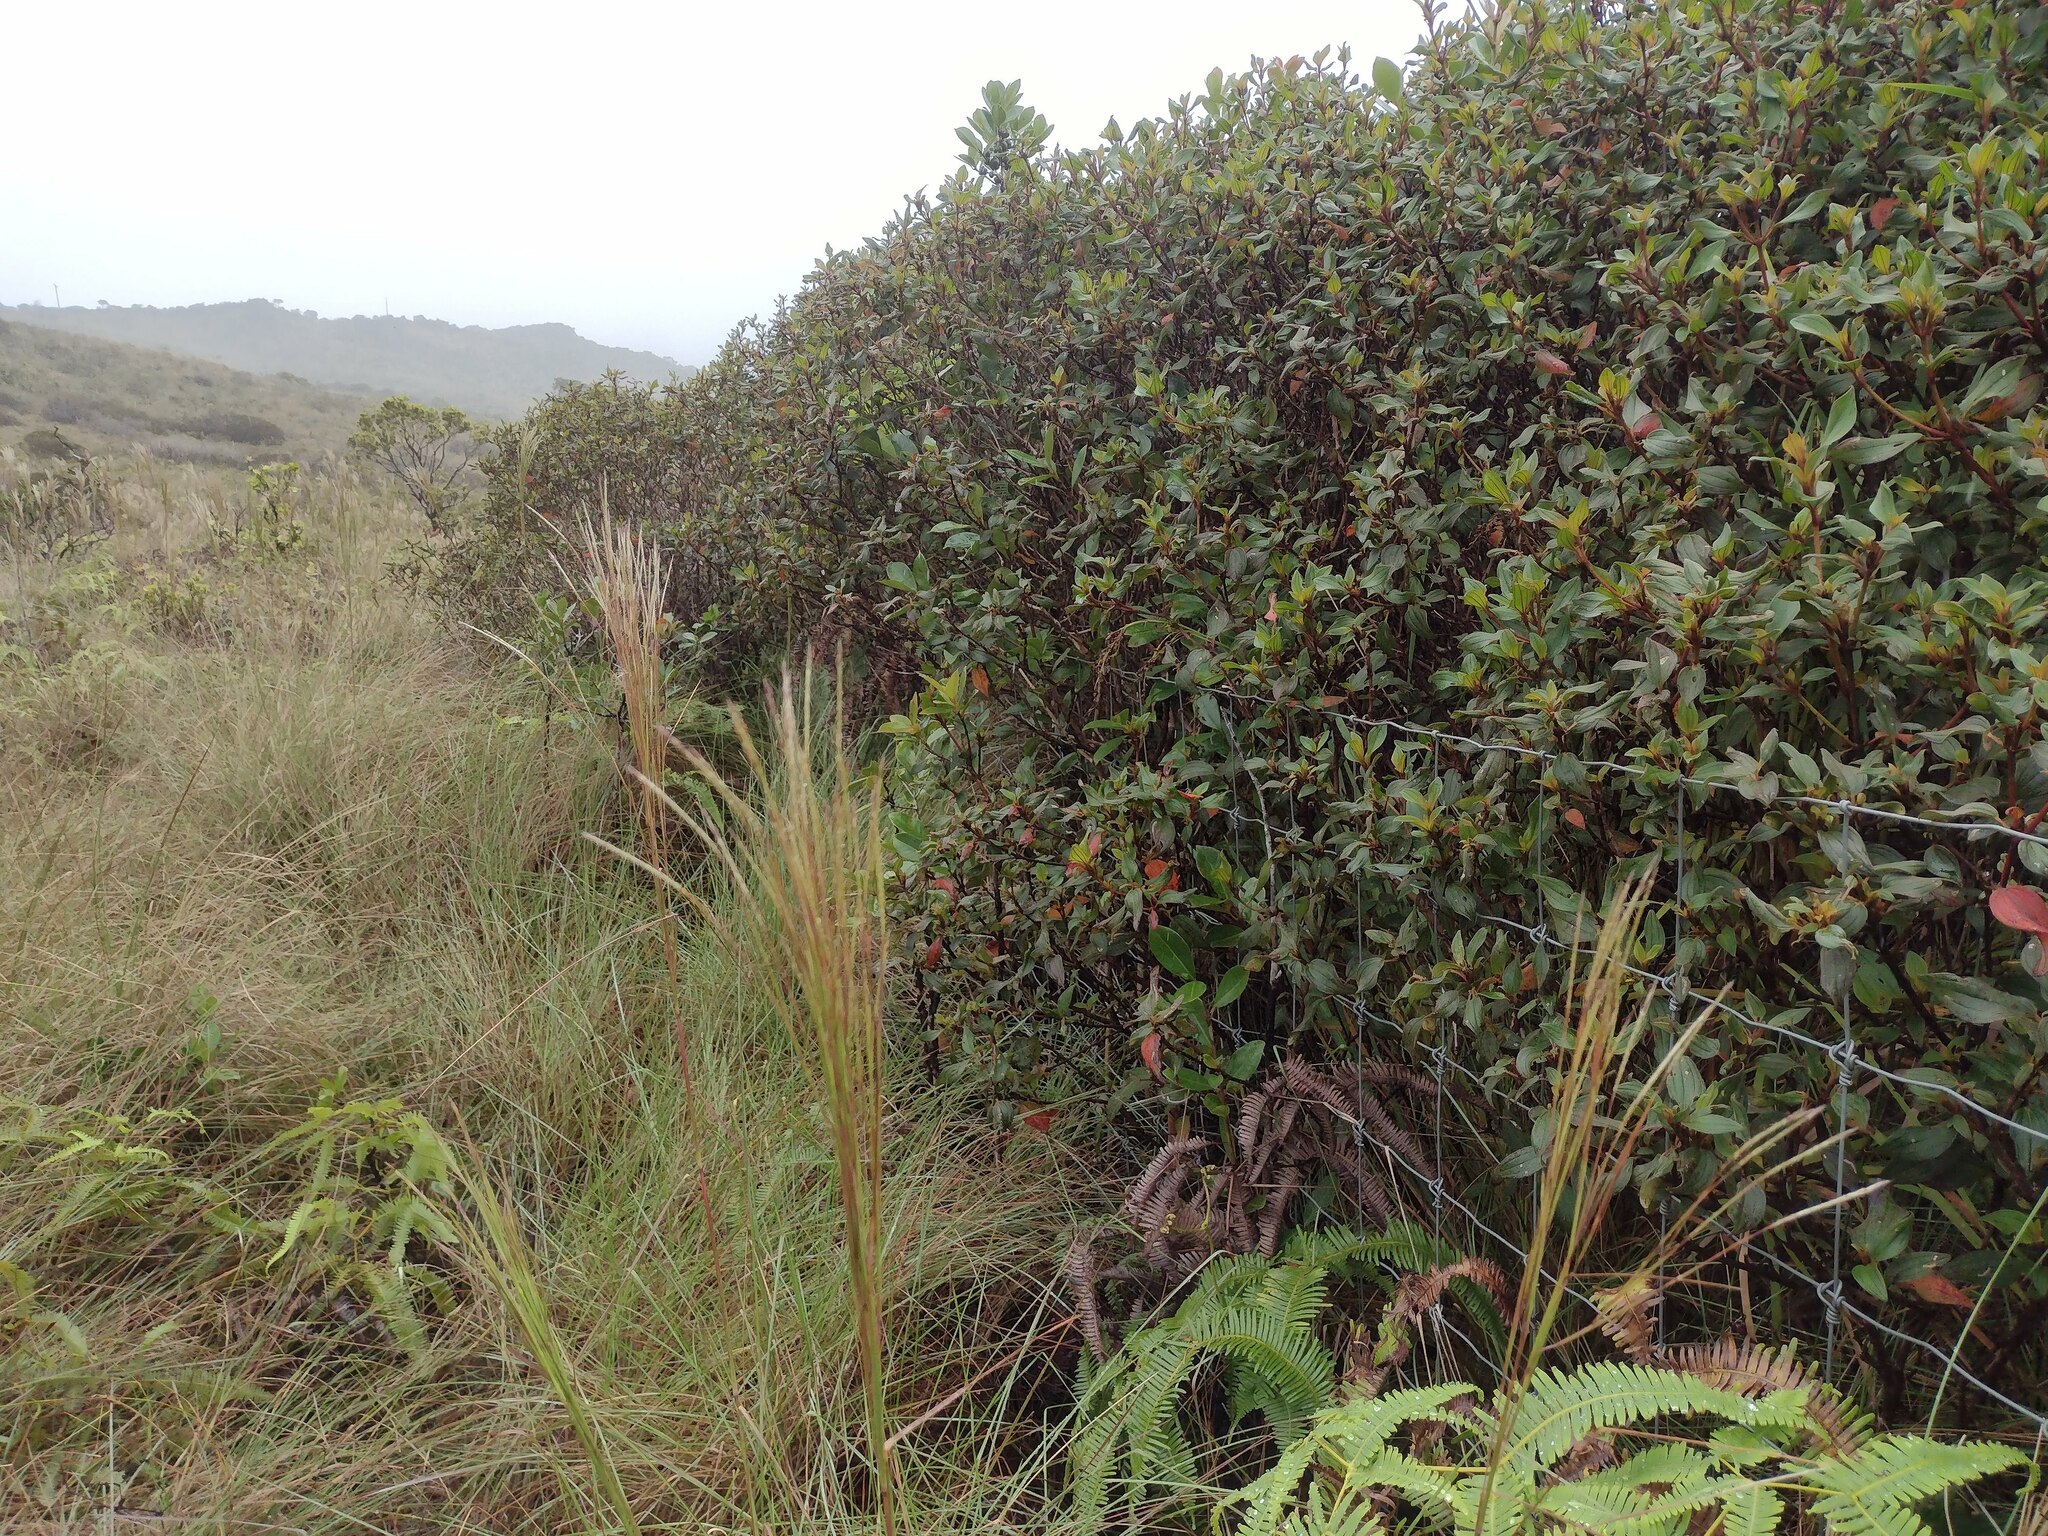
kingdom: Plantae
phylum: Tracheophyta
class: Magnoliopsida
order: Myrtales
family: Melastomataceae
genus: Melastoma
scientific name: Melastoma malabathricum
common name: Indian-rhododendron
